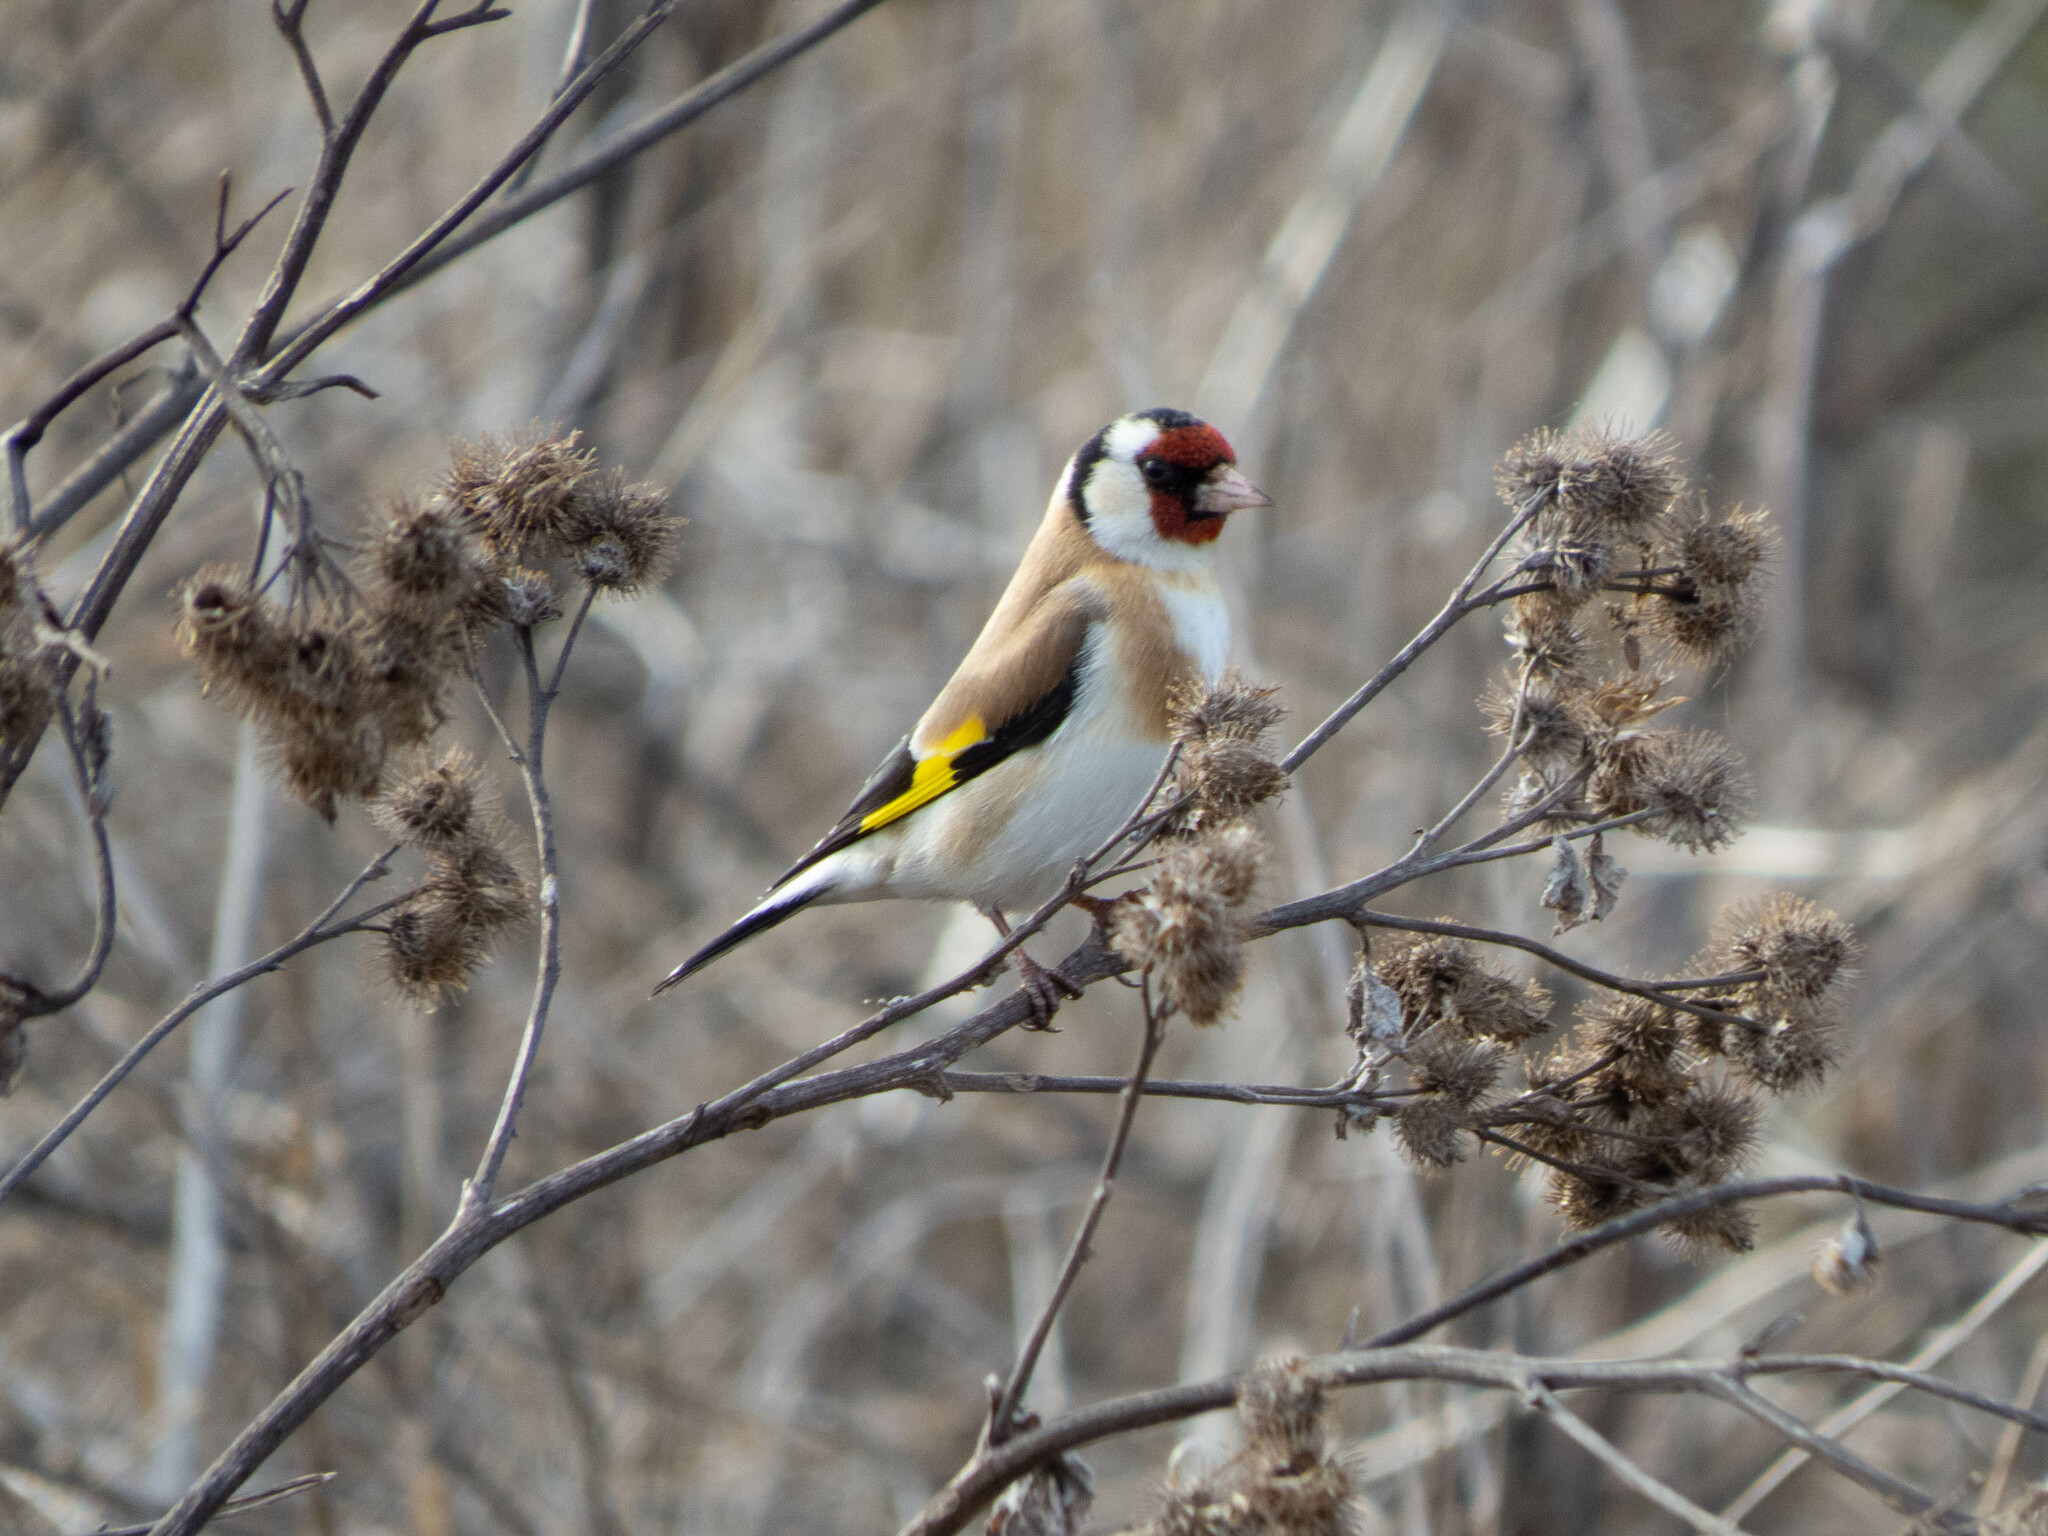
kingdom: Animalia
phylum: Chordata
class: Aves
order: Passeriformes
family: Fringillidae
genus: Carduelis
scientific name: Carduelis carduelis
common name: European goldfinch
